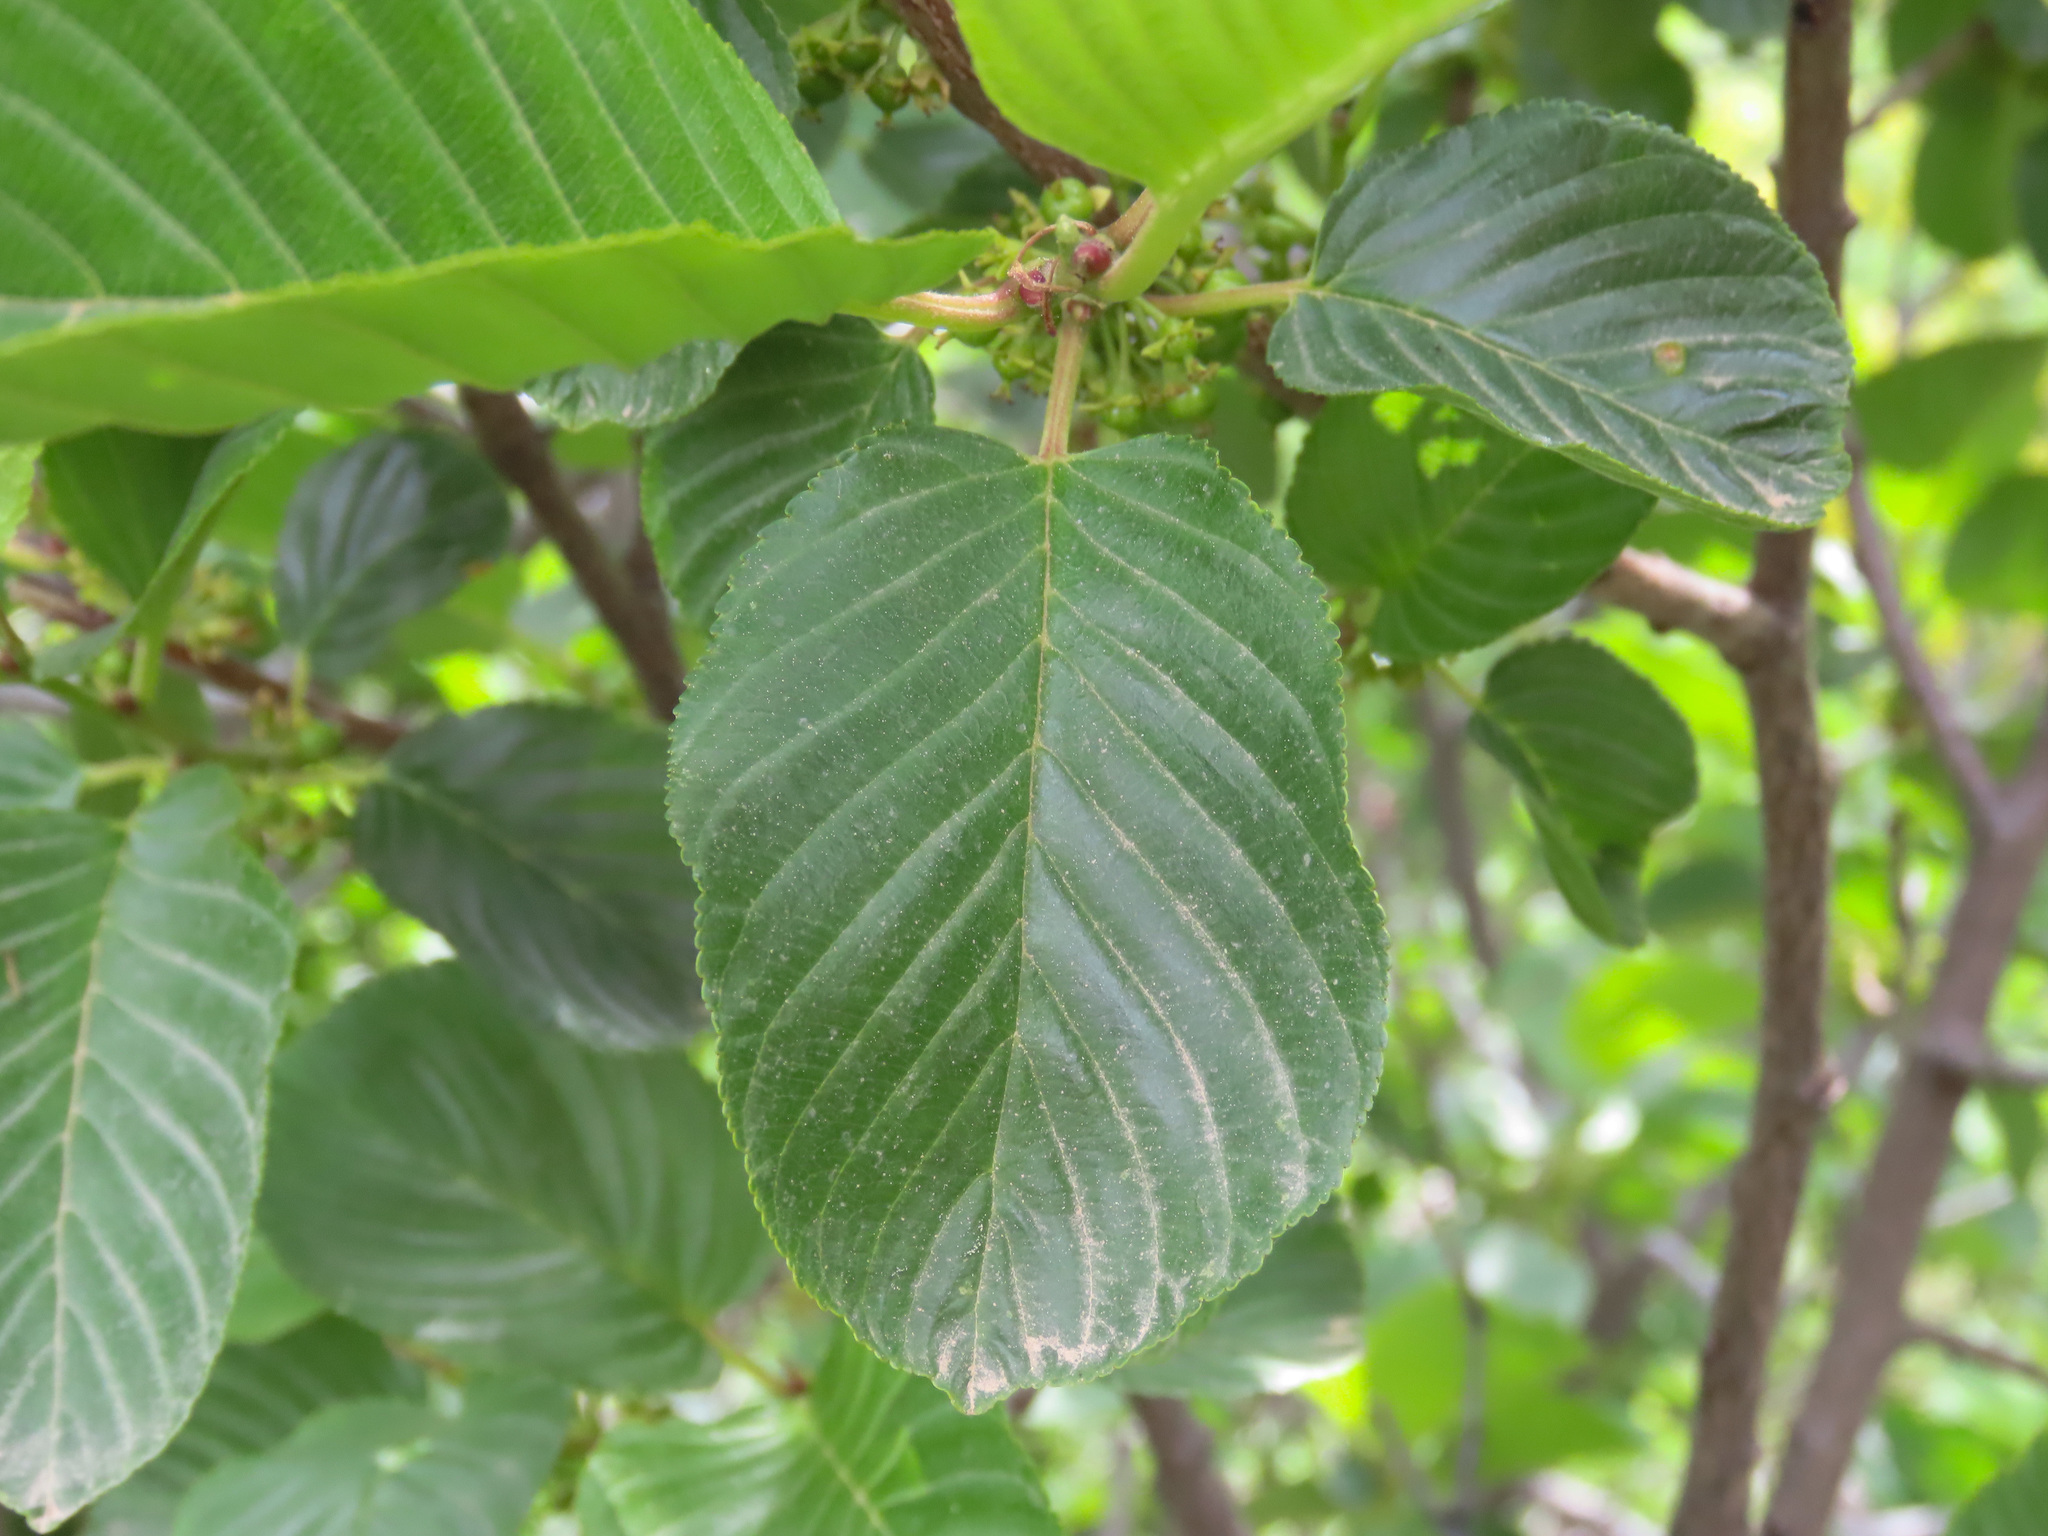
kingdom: Plantae
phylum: Tracheophyta
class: Magnoliopsida
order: Rosales
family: Rhamnaceae
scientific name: Rhamnaceae
